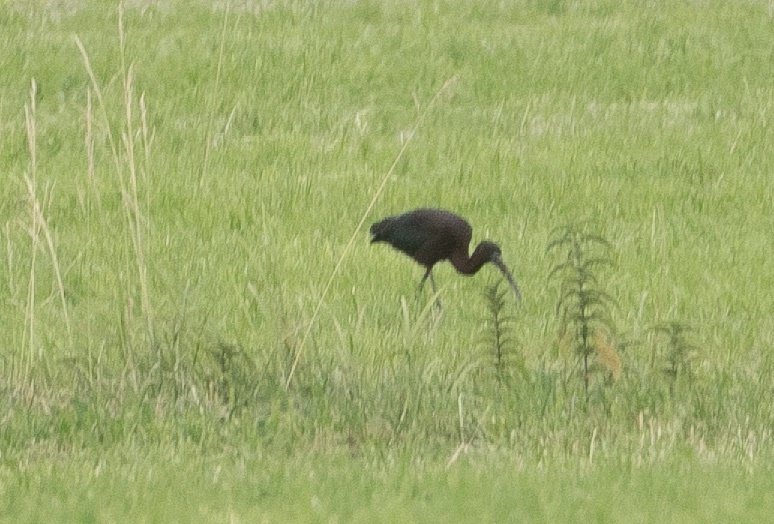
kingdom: Animalia
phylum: Chordata
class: Aves
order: Pelecaniformes
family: Threskiornithidae
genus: Plegadis
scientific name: Plegadis falcinellus
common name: Glossy ibis
